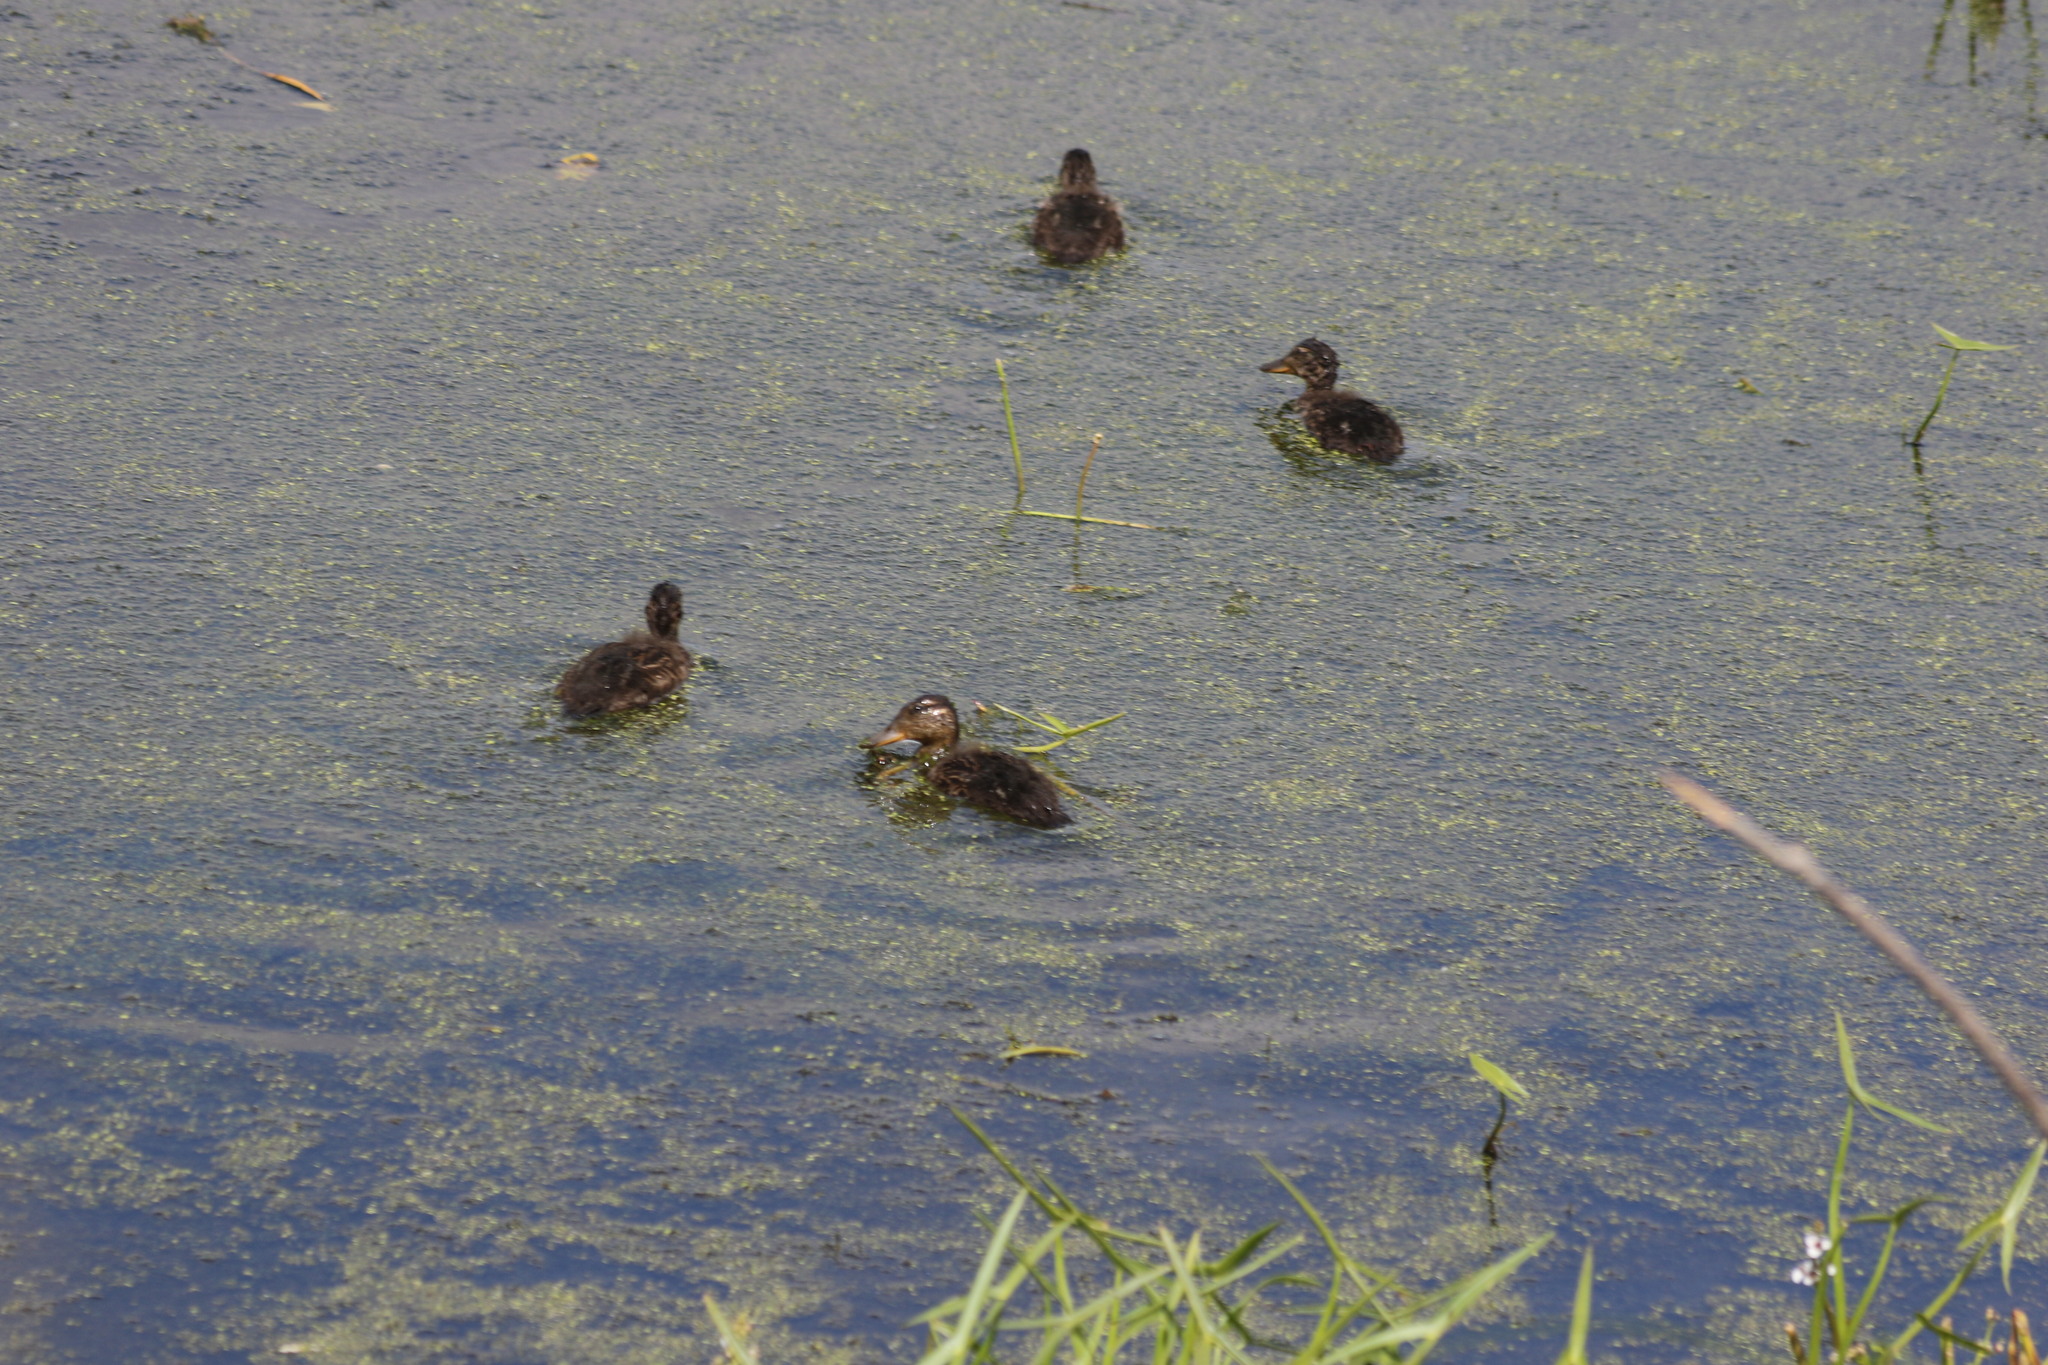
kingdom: Animalia
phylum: Chordata
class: Aves
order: Anseriformes
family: Anatidae
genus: Anas
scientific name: Anas platyrhynchos
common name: Mallard
